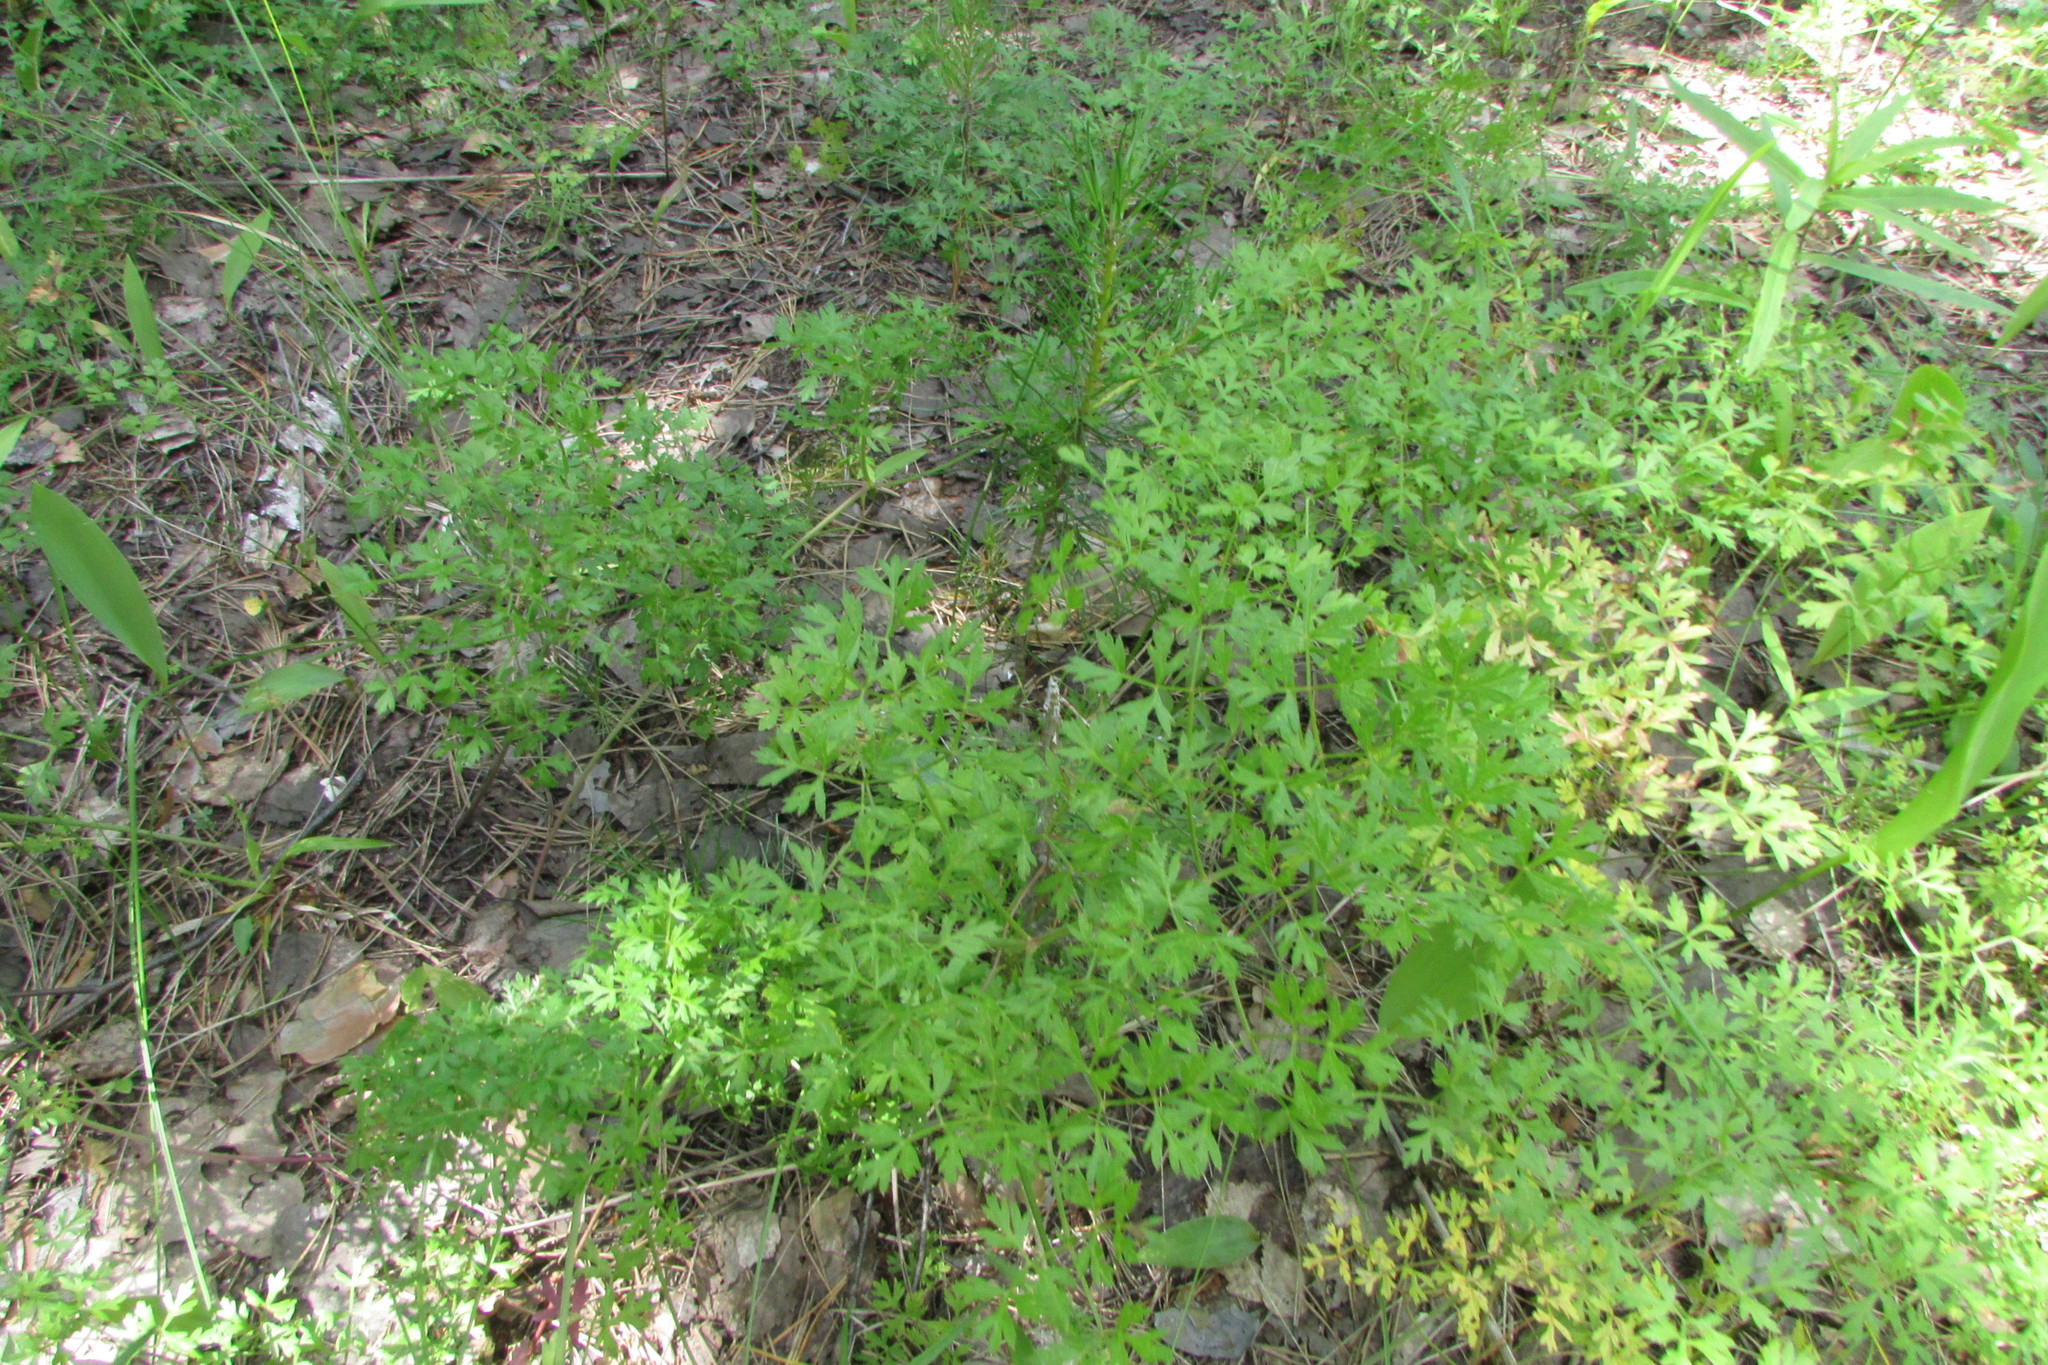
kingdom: Plantae
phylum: Tracheophyta
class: Magnoliopsida
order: Apiales
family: Apiaceae
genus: Oreoselinum
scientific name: Oreoselinum nigrum
